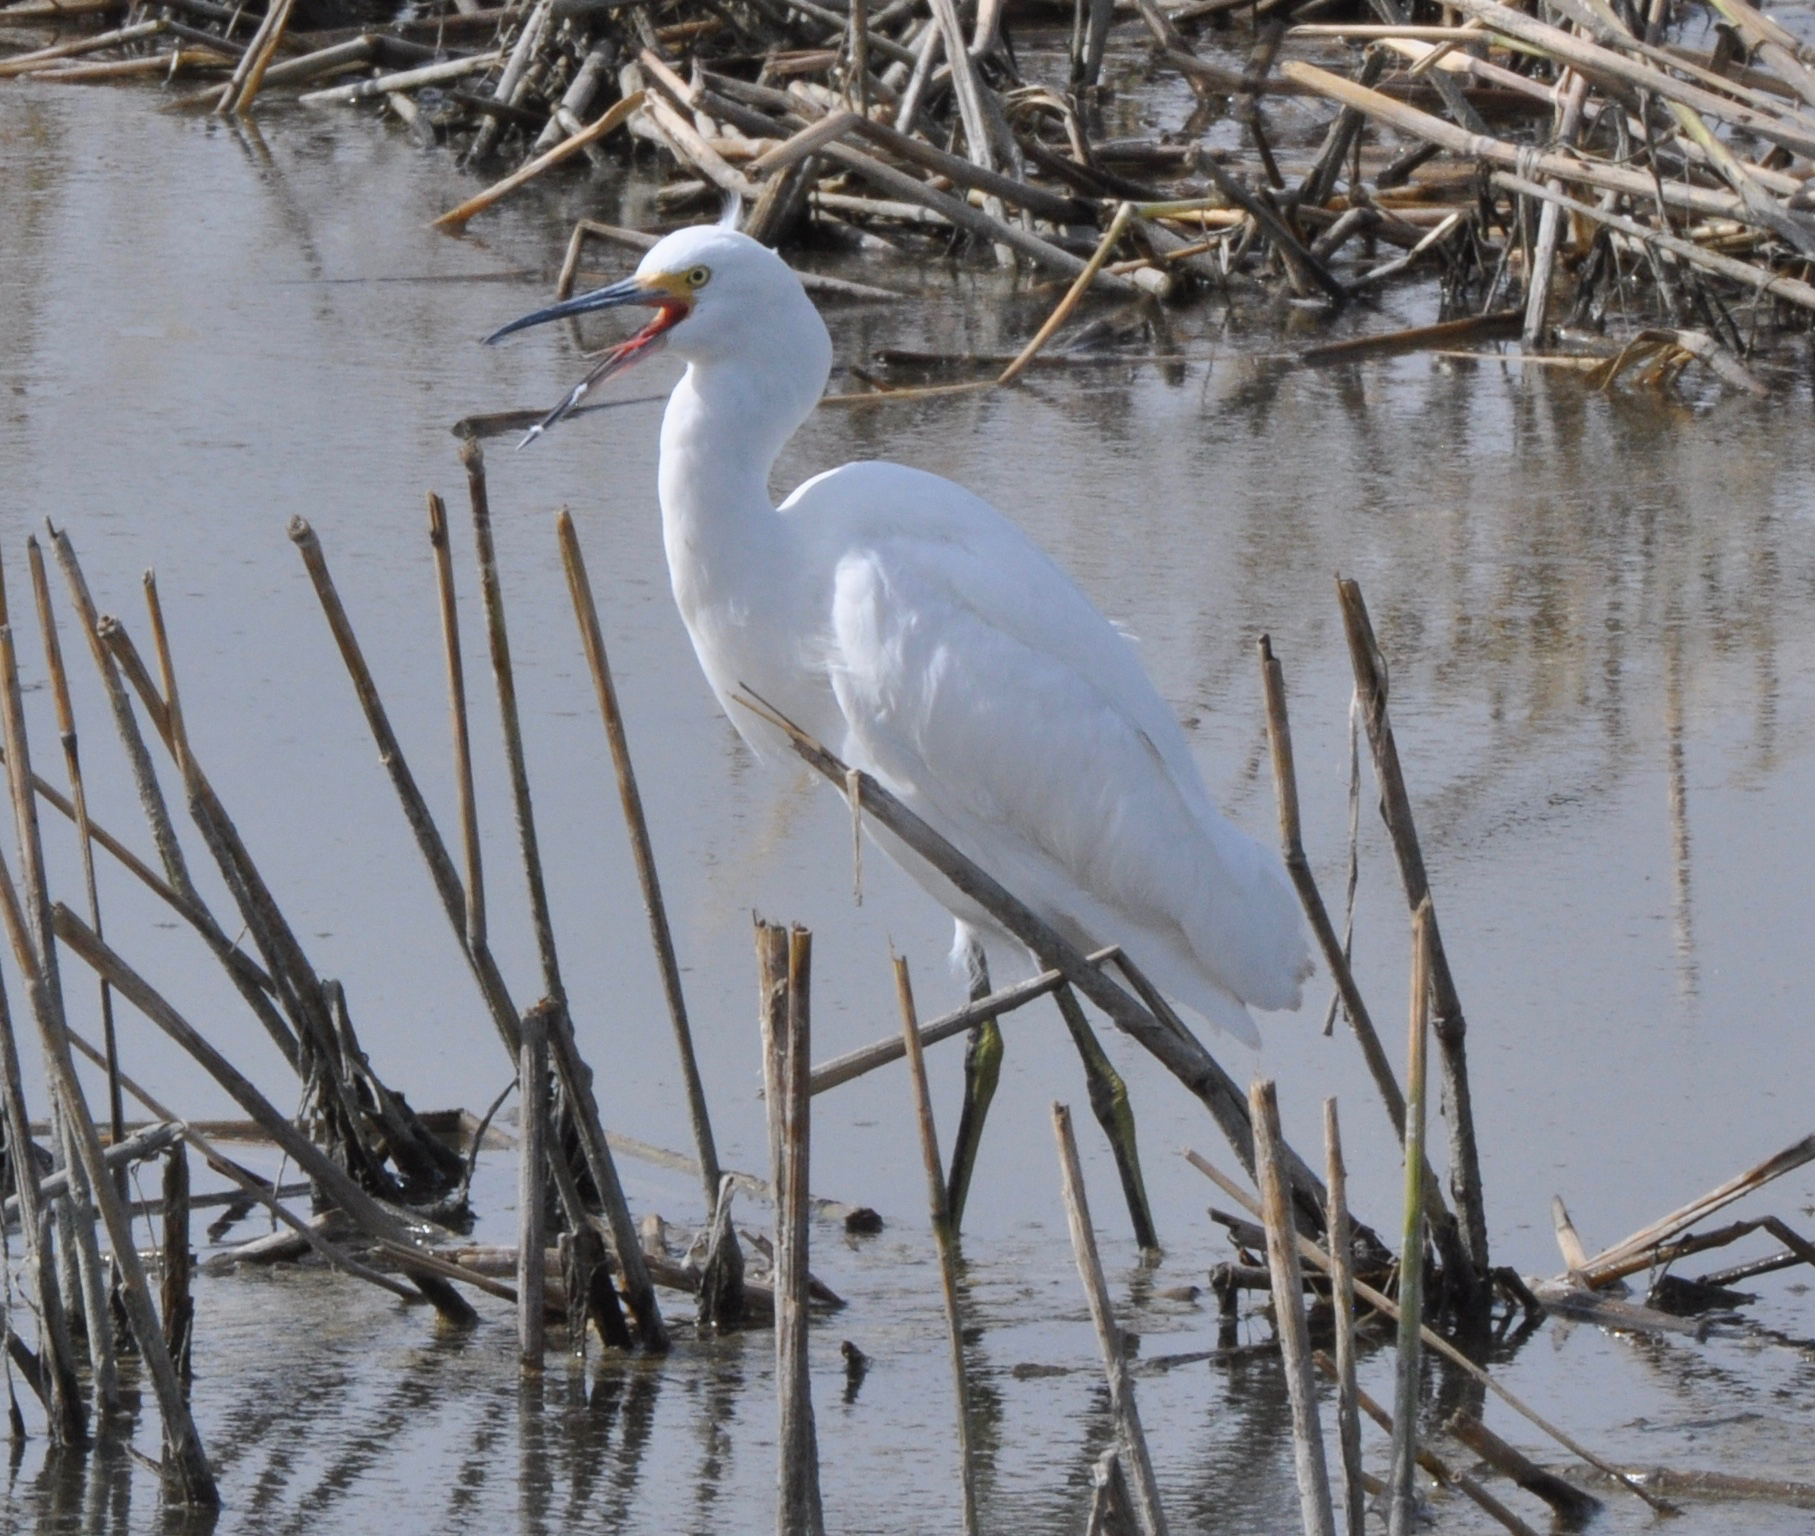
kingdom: Animalia
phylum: Chordata
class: Aves
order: Pelecaniformes
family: Ardeidae
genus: Egretta
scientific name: Egretta thula
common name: Snowy egret
